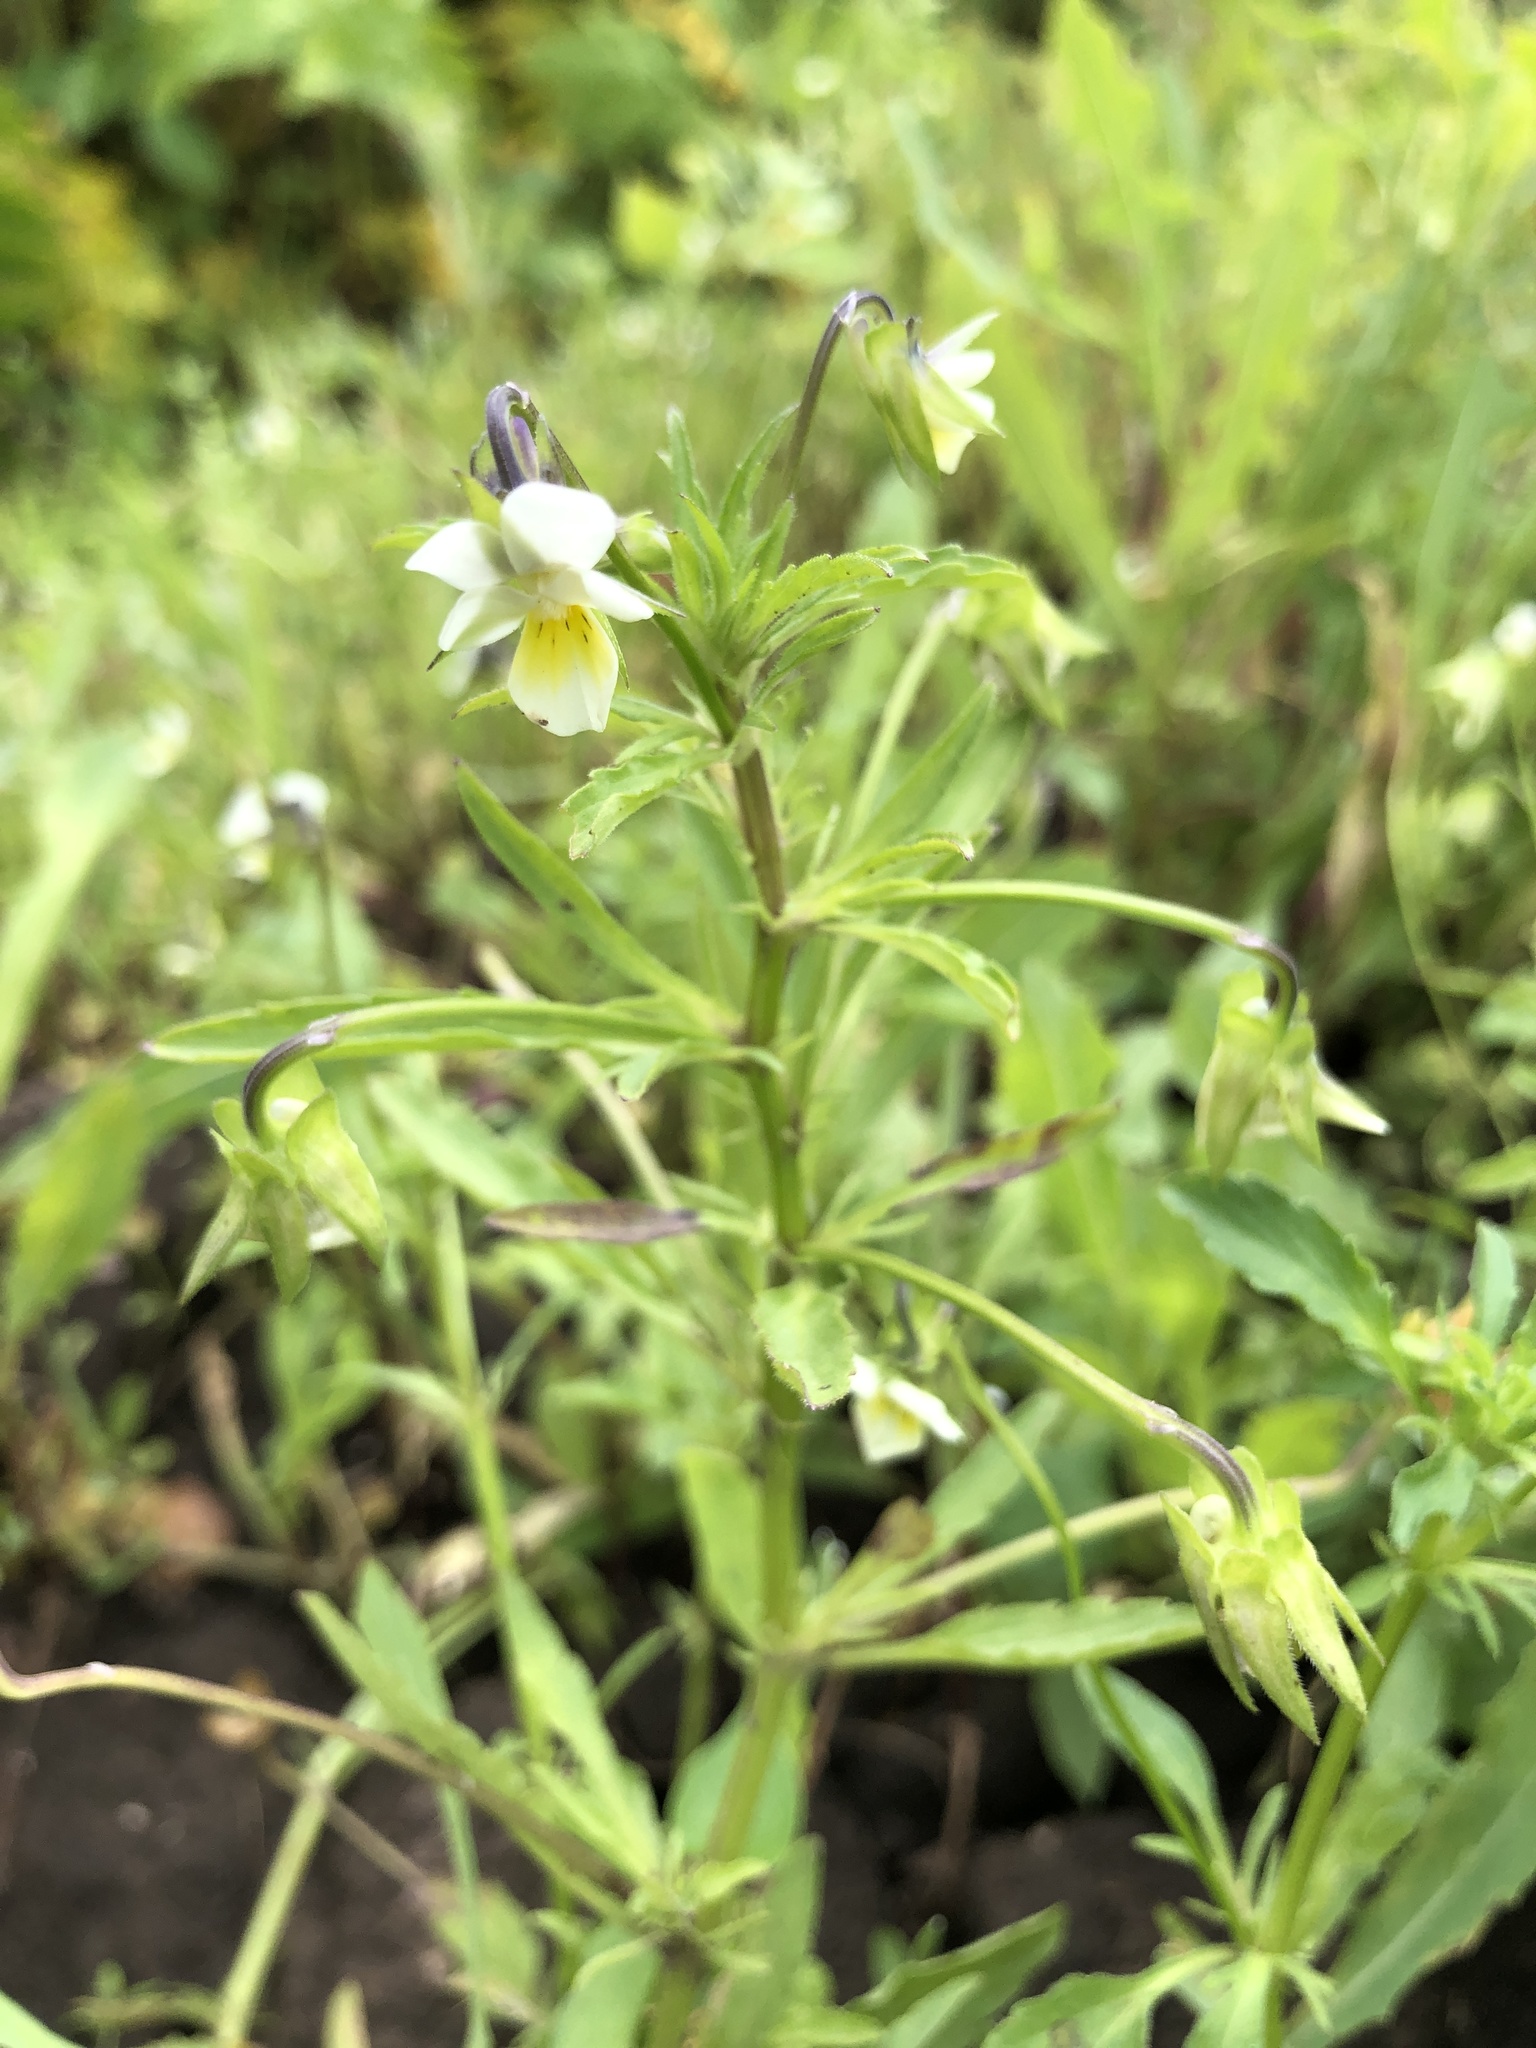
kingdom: Plantae
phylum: Tracheophyta
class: Magnoliopsida
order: Malpighiales
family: Violaceae
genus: Viola
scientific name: Viola arvensis
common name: Field pansy
